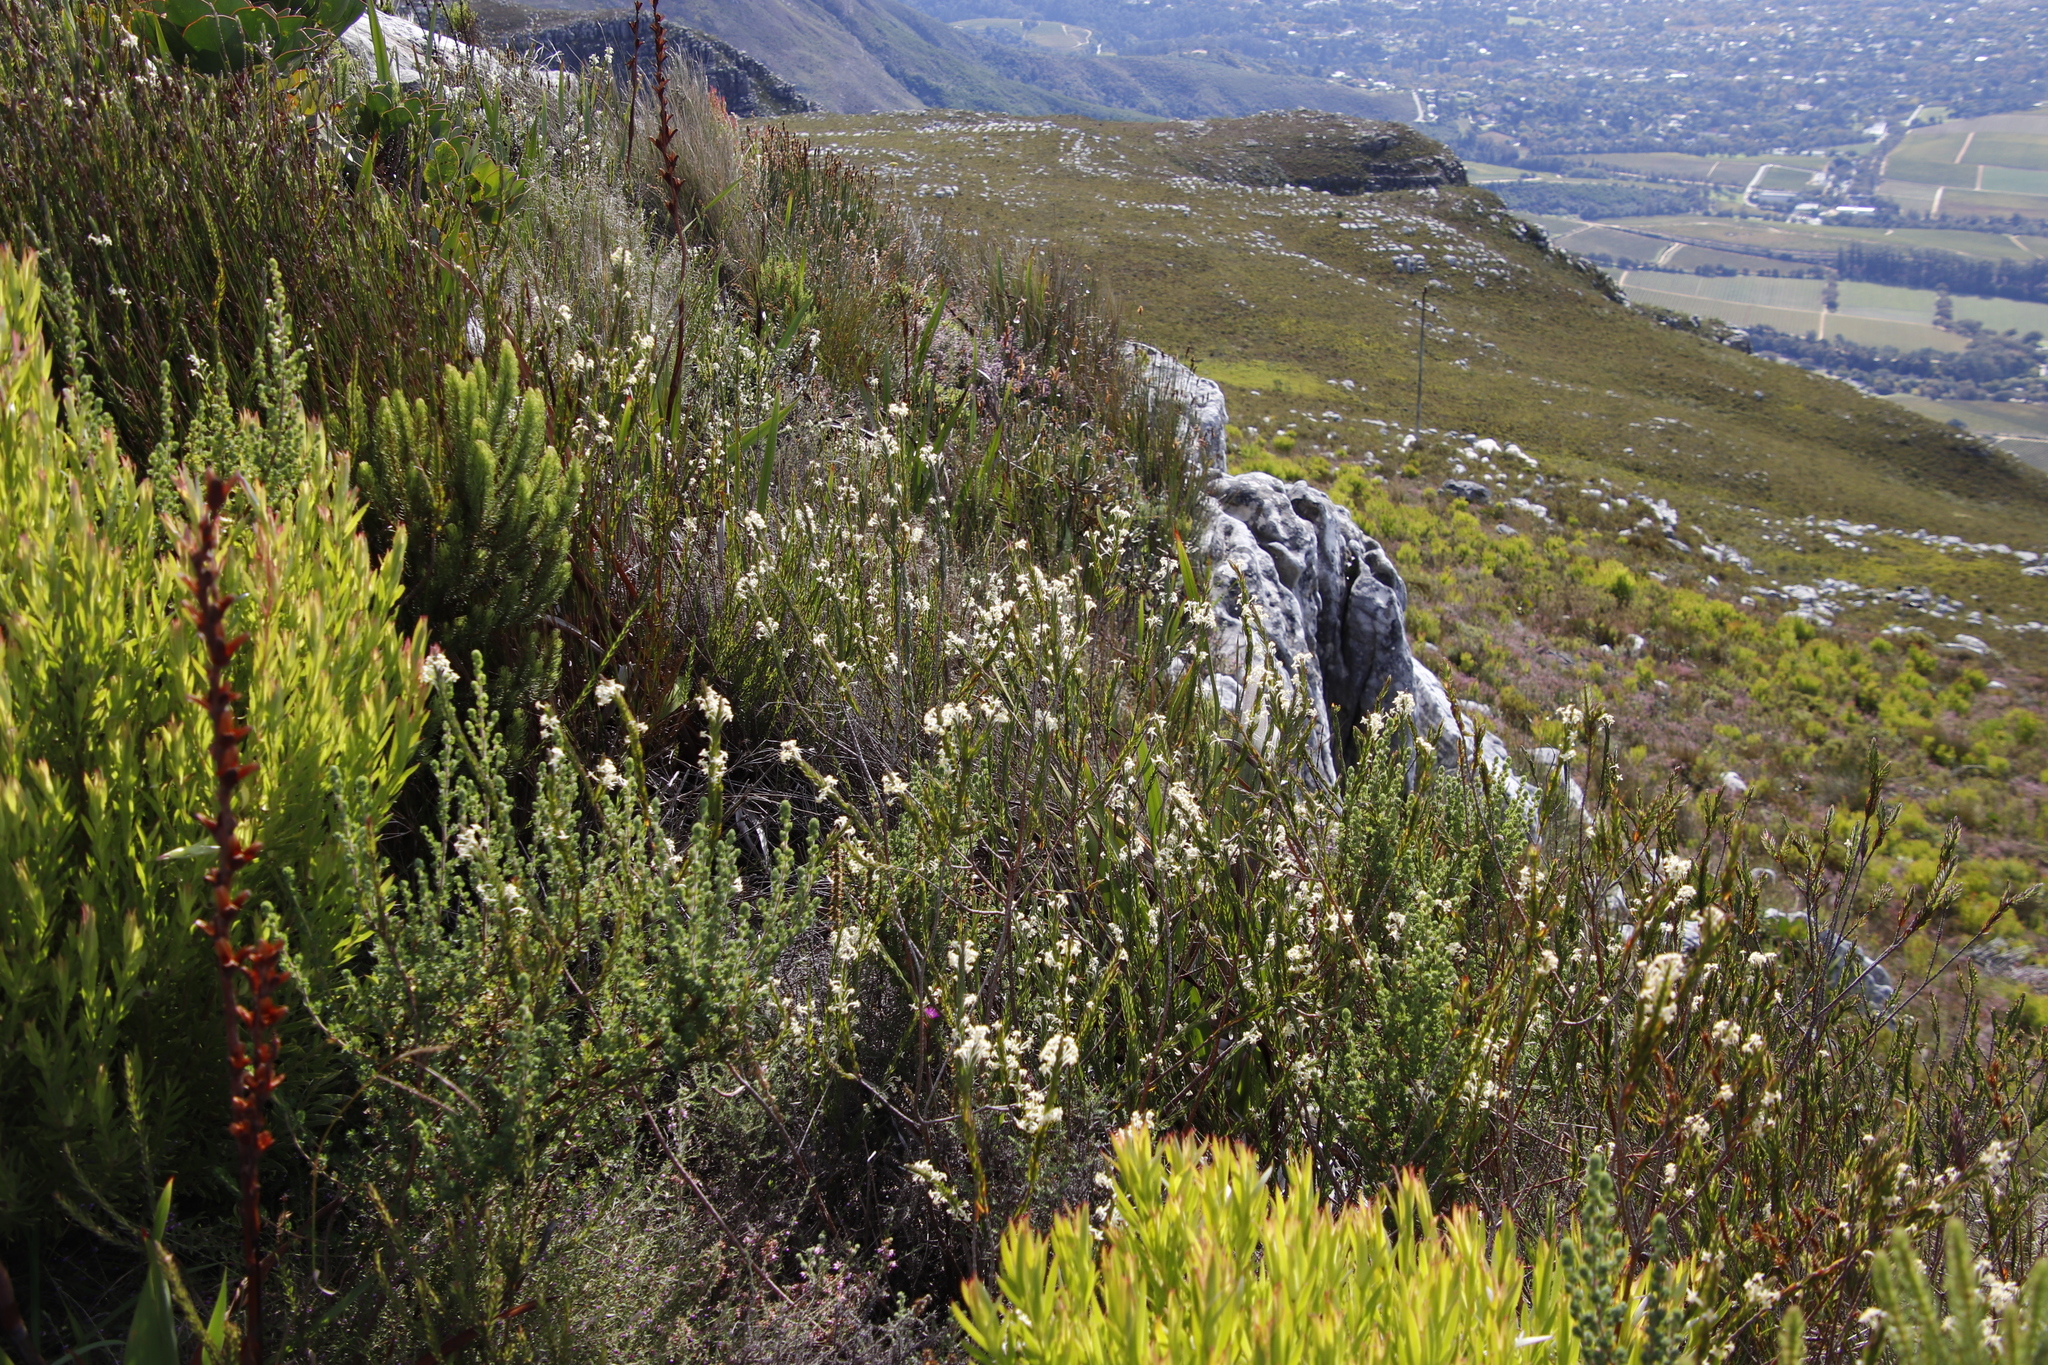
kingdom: Plantae
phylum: Tracheophyta
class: Magnoliopsida
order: Malvales
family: Thymelaeaceae
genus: Struthiola
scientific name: Struthiola ciliata
